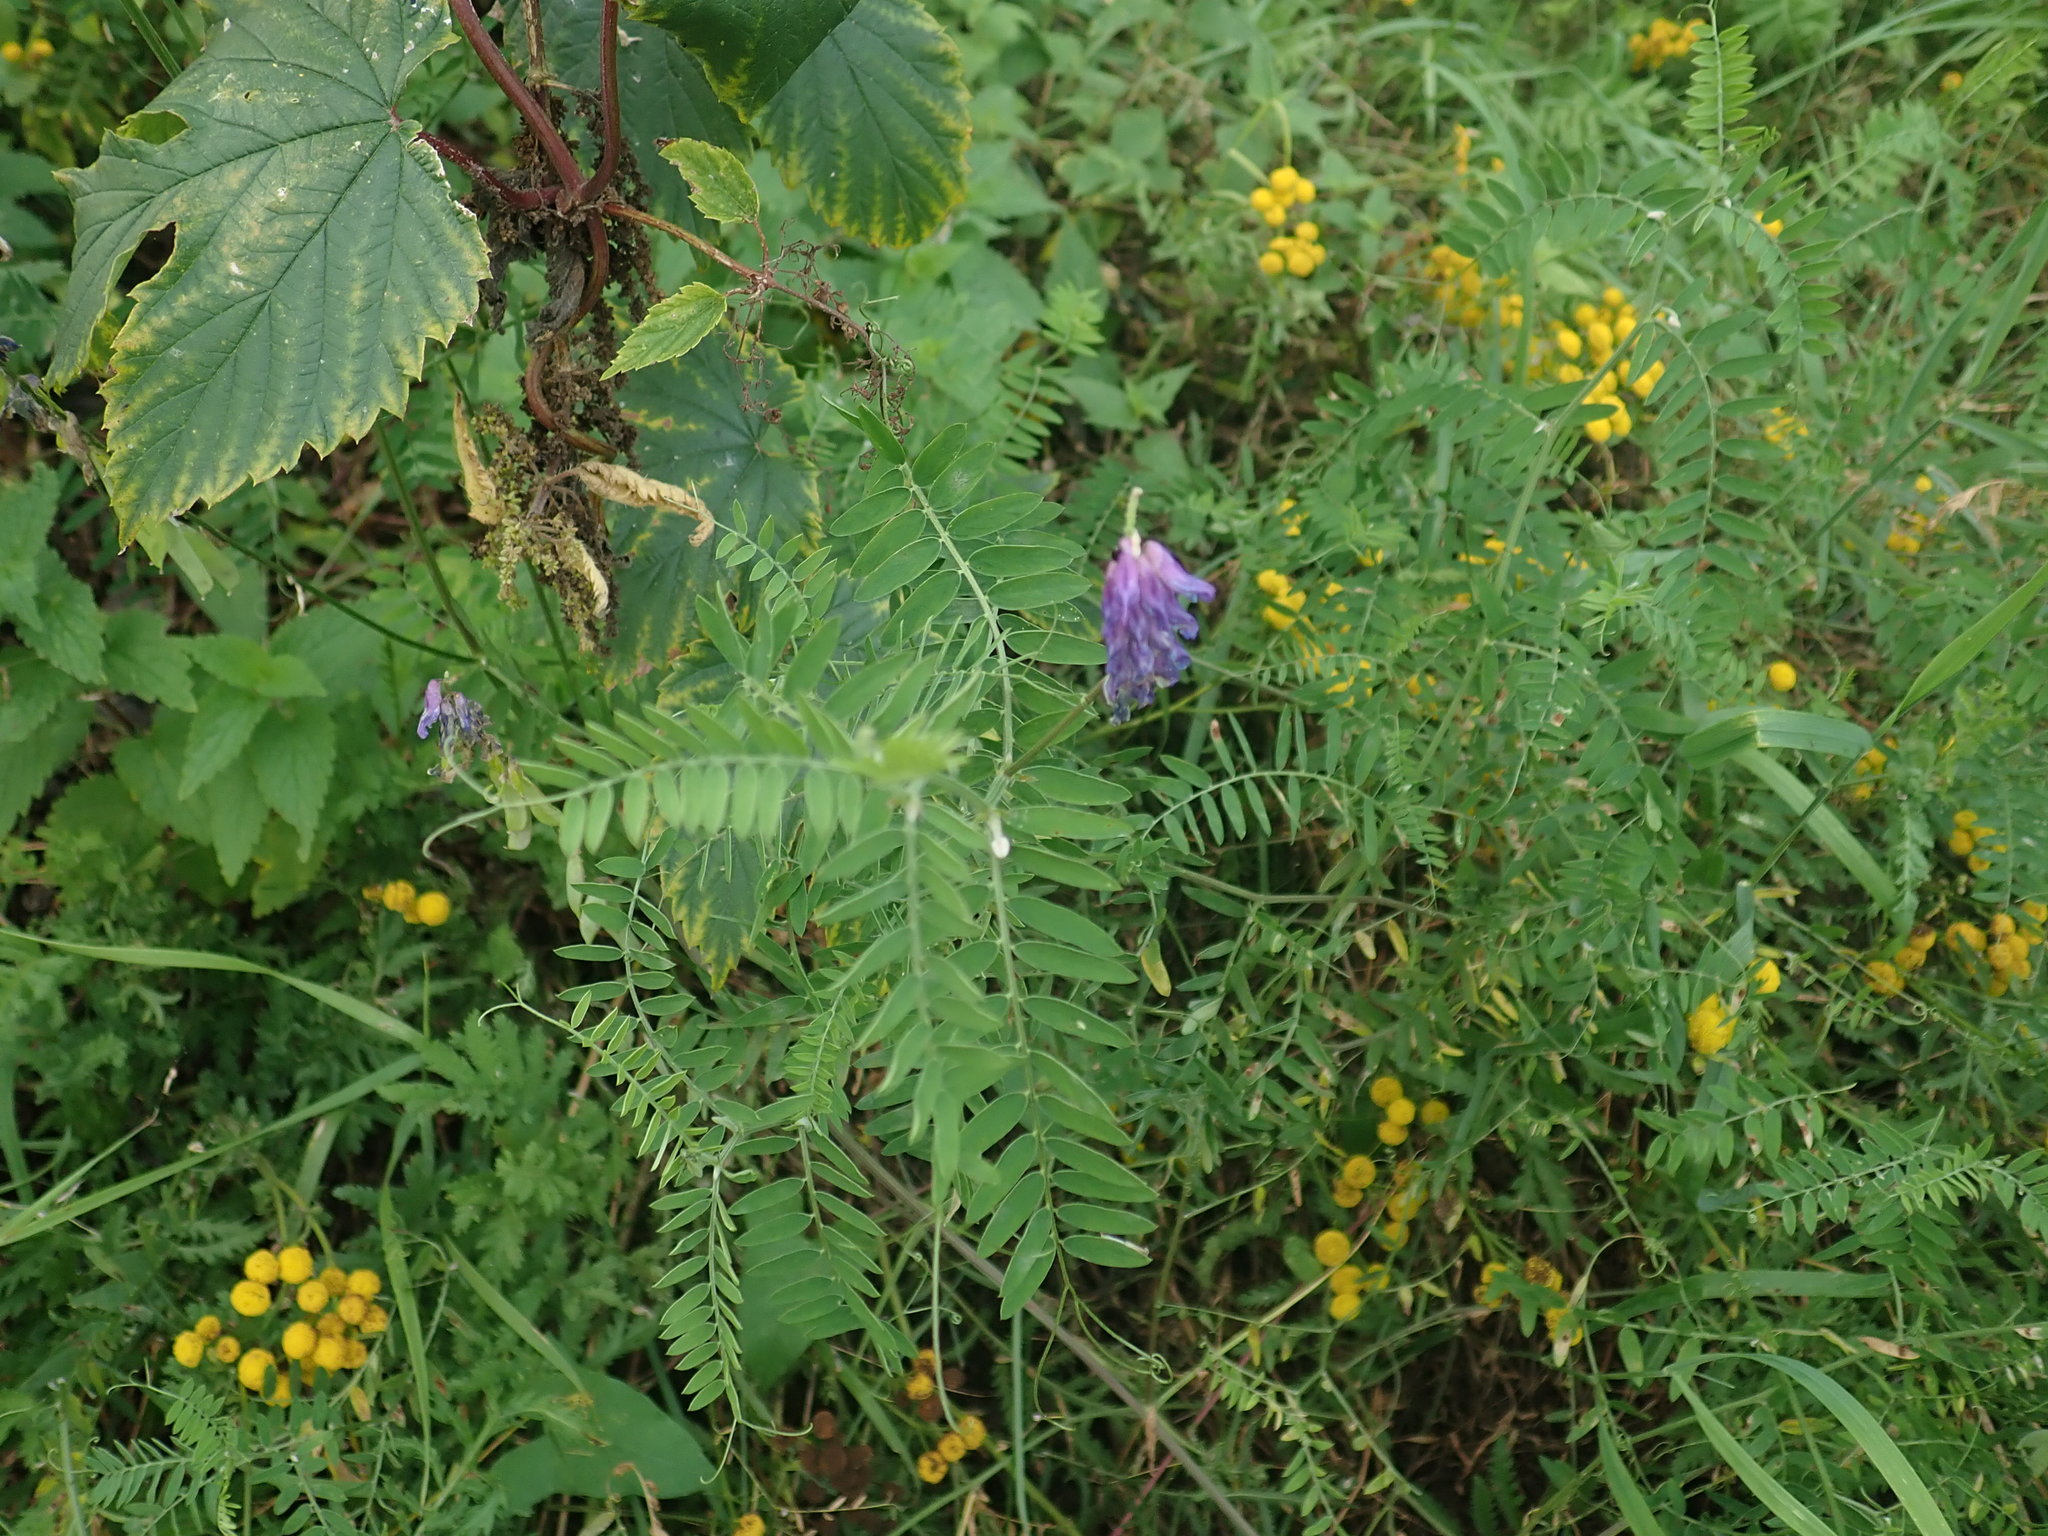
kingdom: Plantae
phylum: Tracheophyta
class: Magnoliopsida
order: Fabales
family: Fabaceae
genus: Vicia
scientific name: Vicia cracca
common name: Bird vetch
